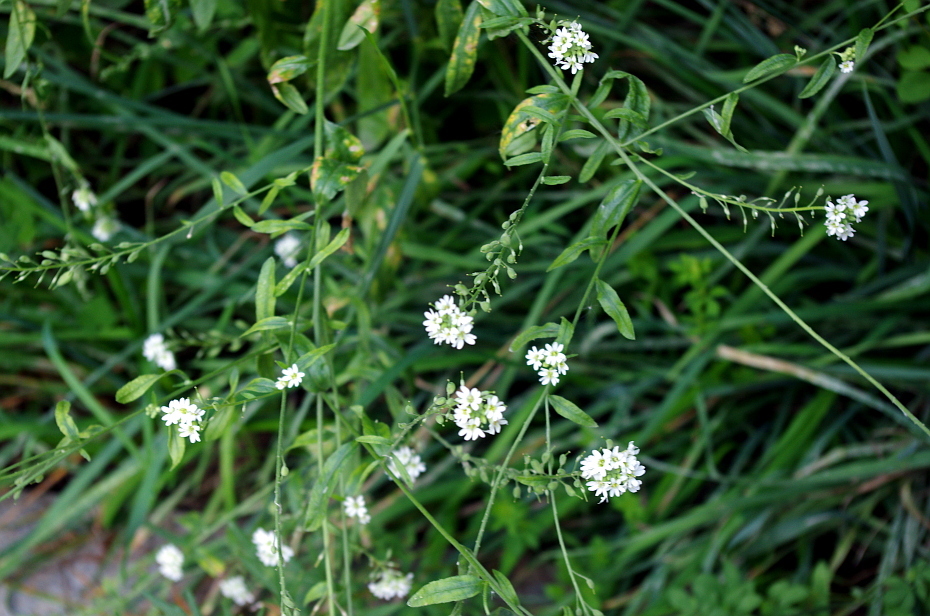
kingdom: Plantae
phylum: Tracheophyta
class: Magnoliopsida
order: Brassicales
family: Brassicaceae
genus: Berteroa
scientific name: Berteroa incana
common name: Hoary alison
